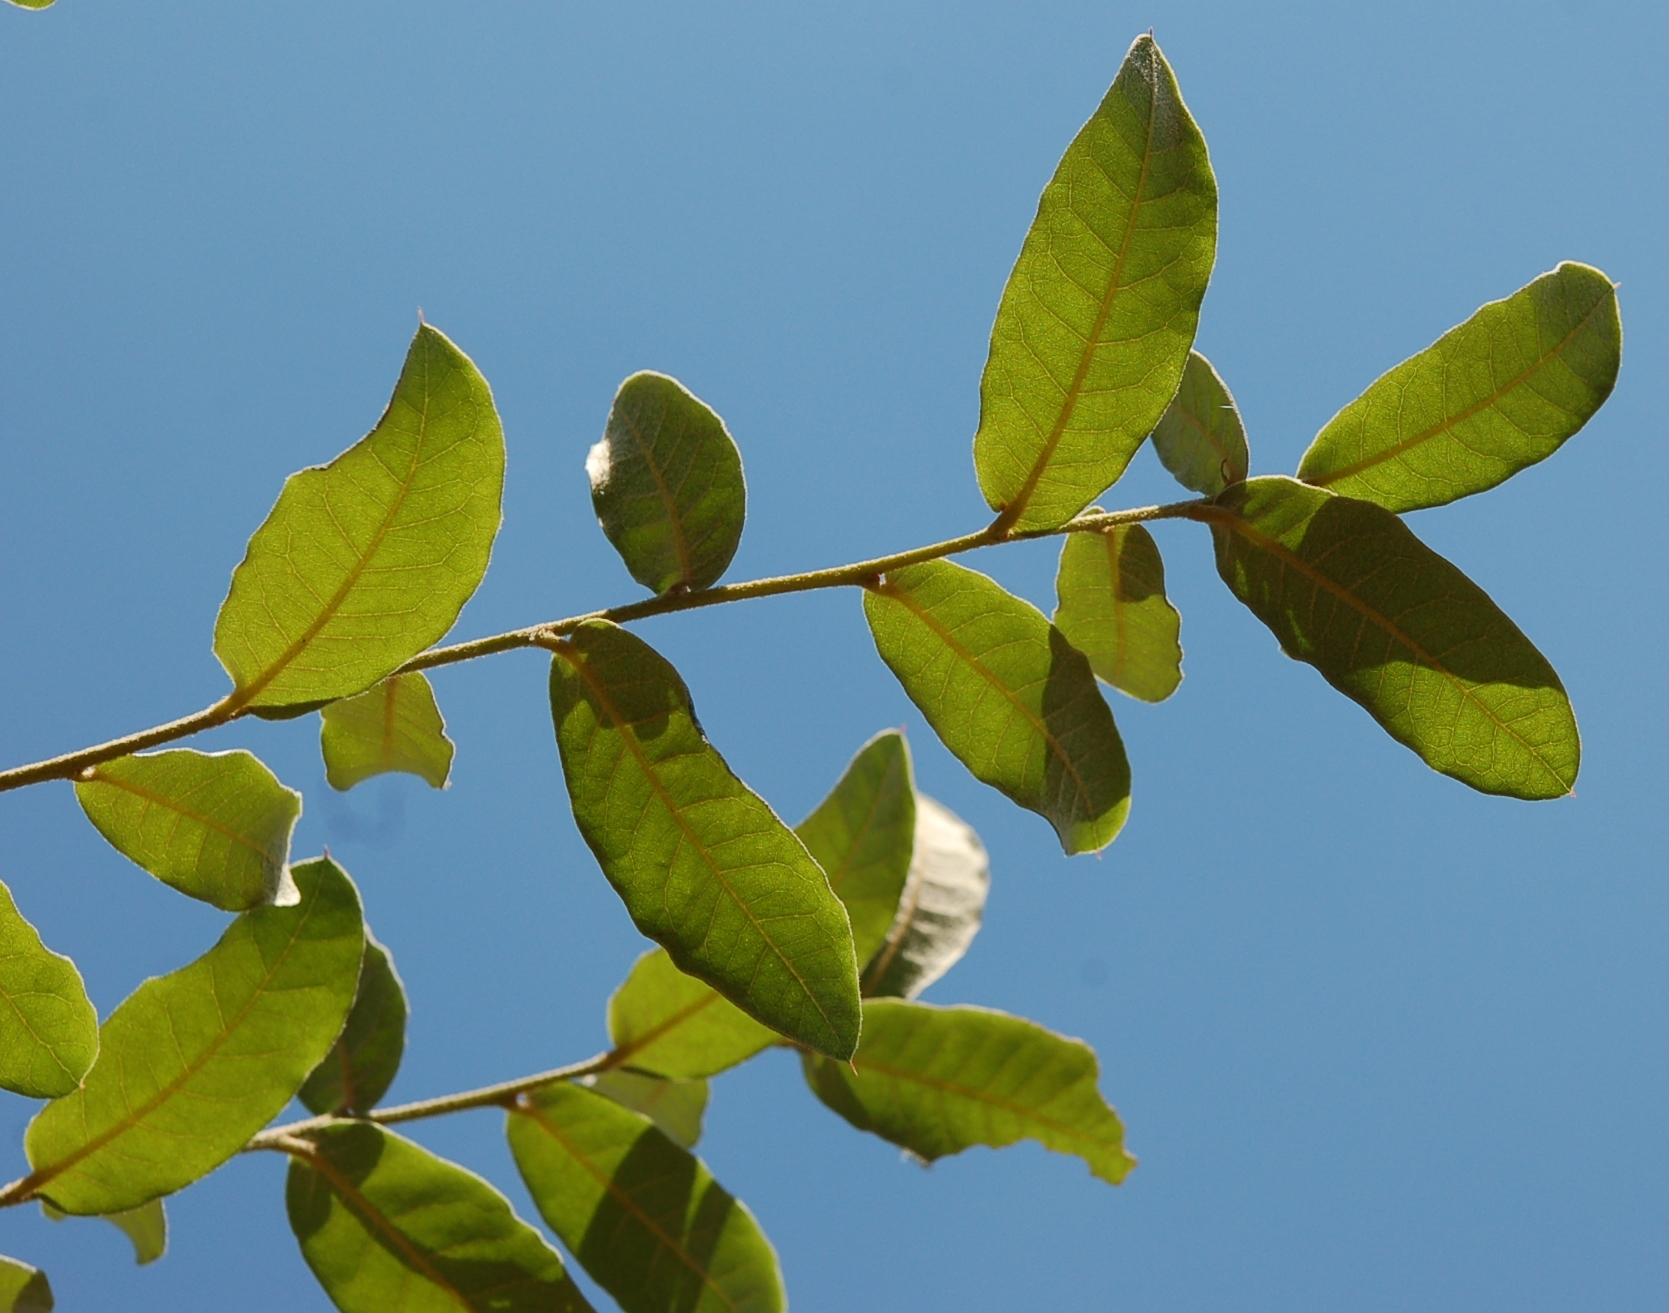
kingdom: Plantae
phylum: Tracheophyta
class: Magnoliopsida
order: Fagales
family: Fagaceae
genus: Quercus
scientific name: Quercus crispipilis
